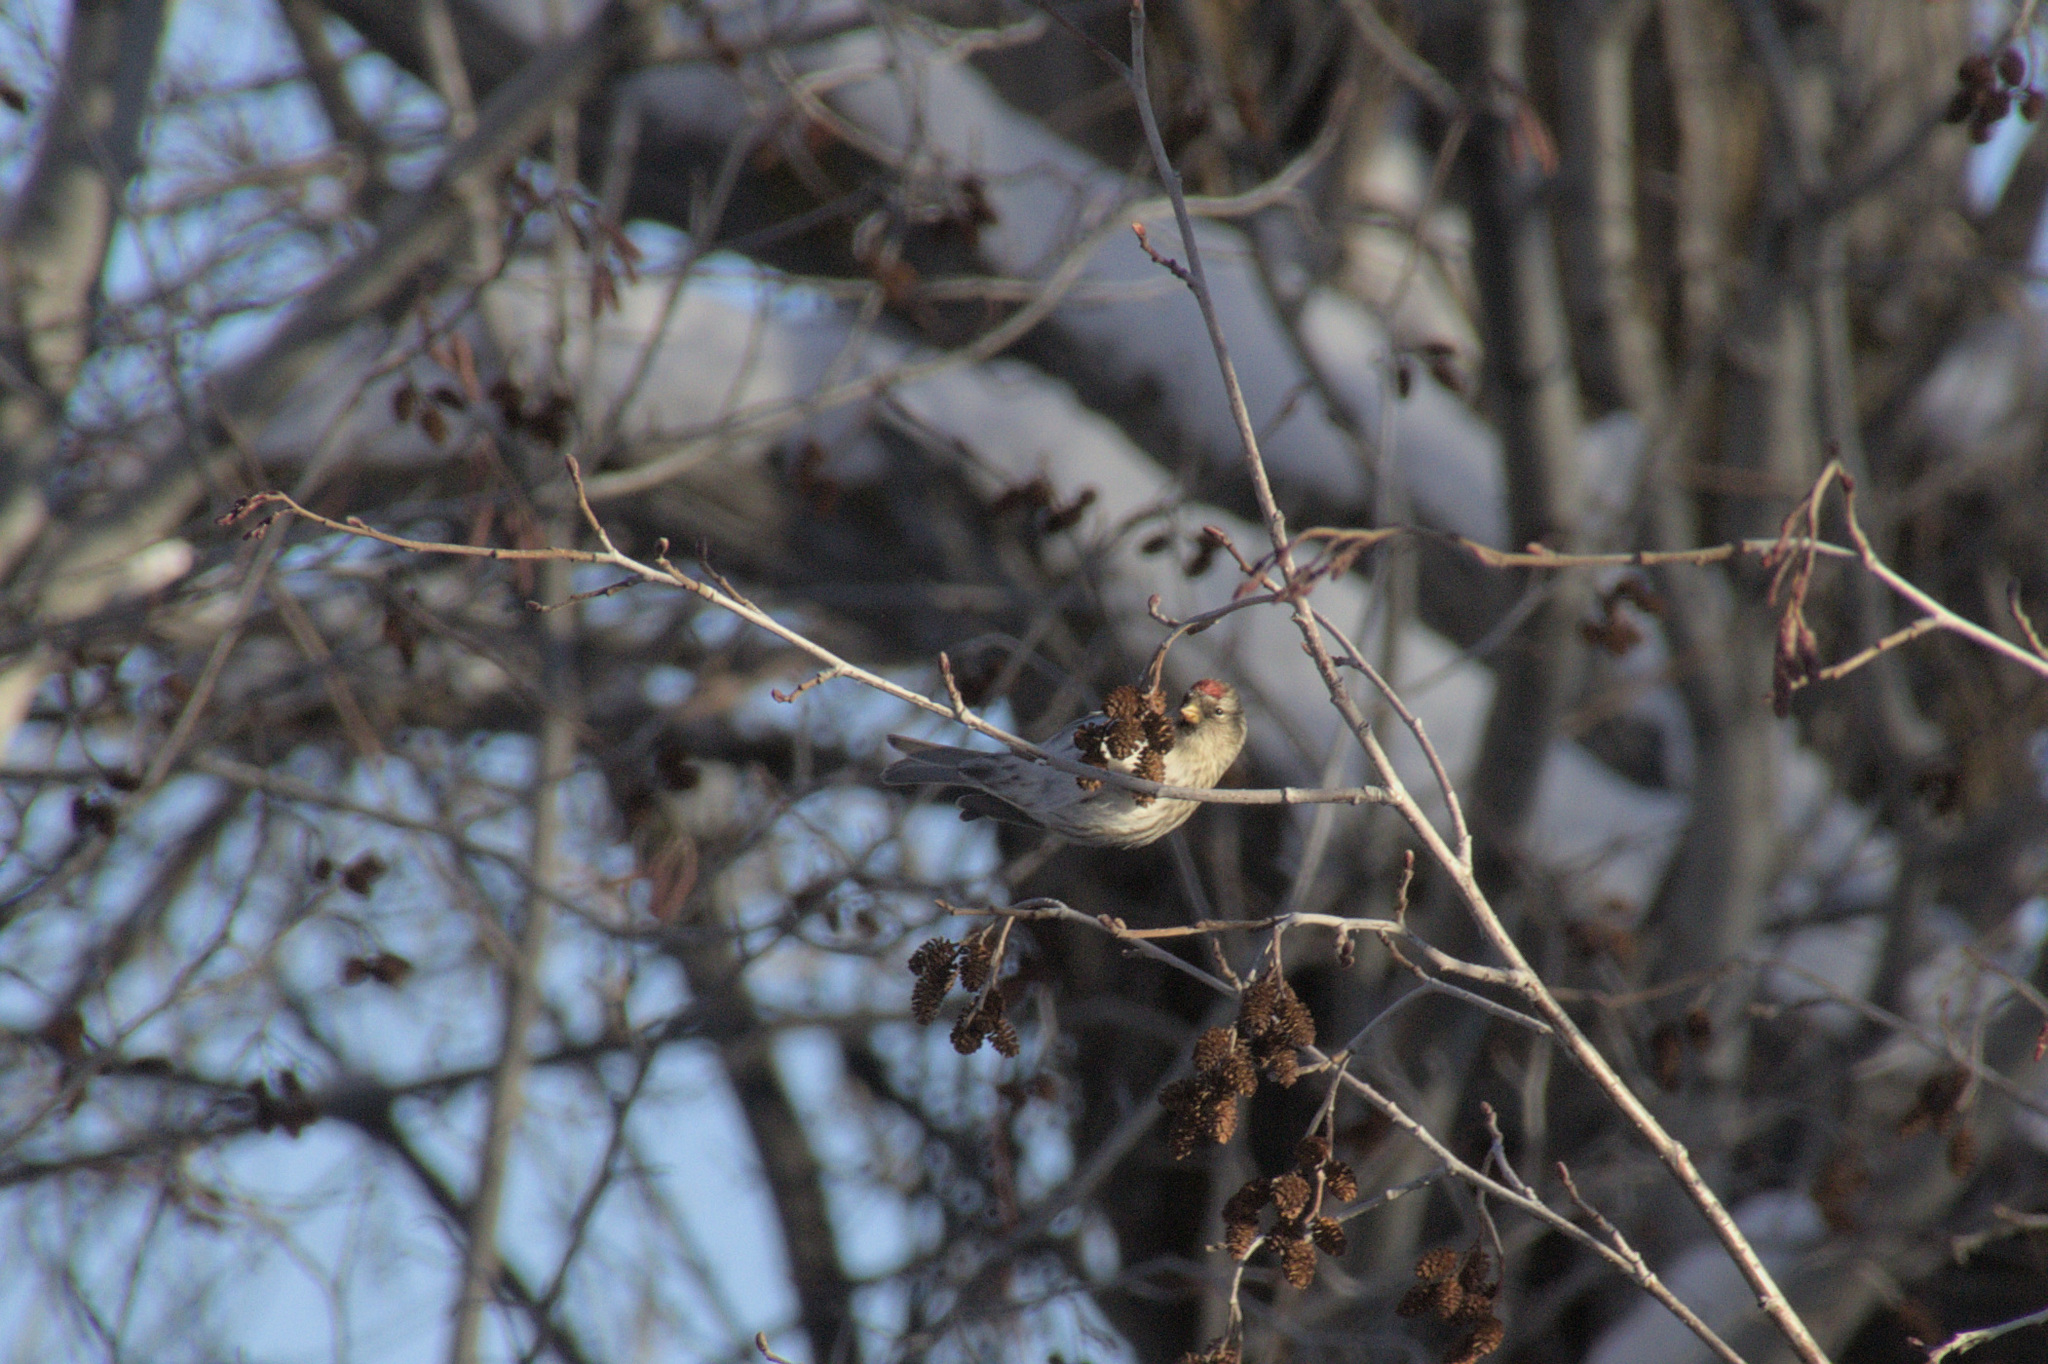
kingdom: Animalia
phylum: Chordata
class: Aves
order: Passeriformes
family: Fringillidae
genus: Acanthis
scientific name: Acanthis flammea
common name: Common redpoll
